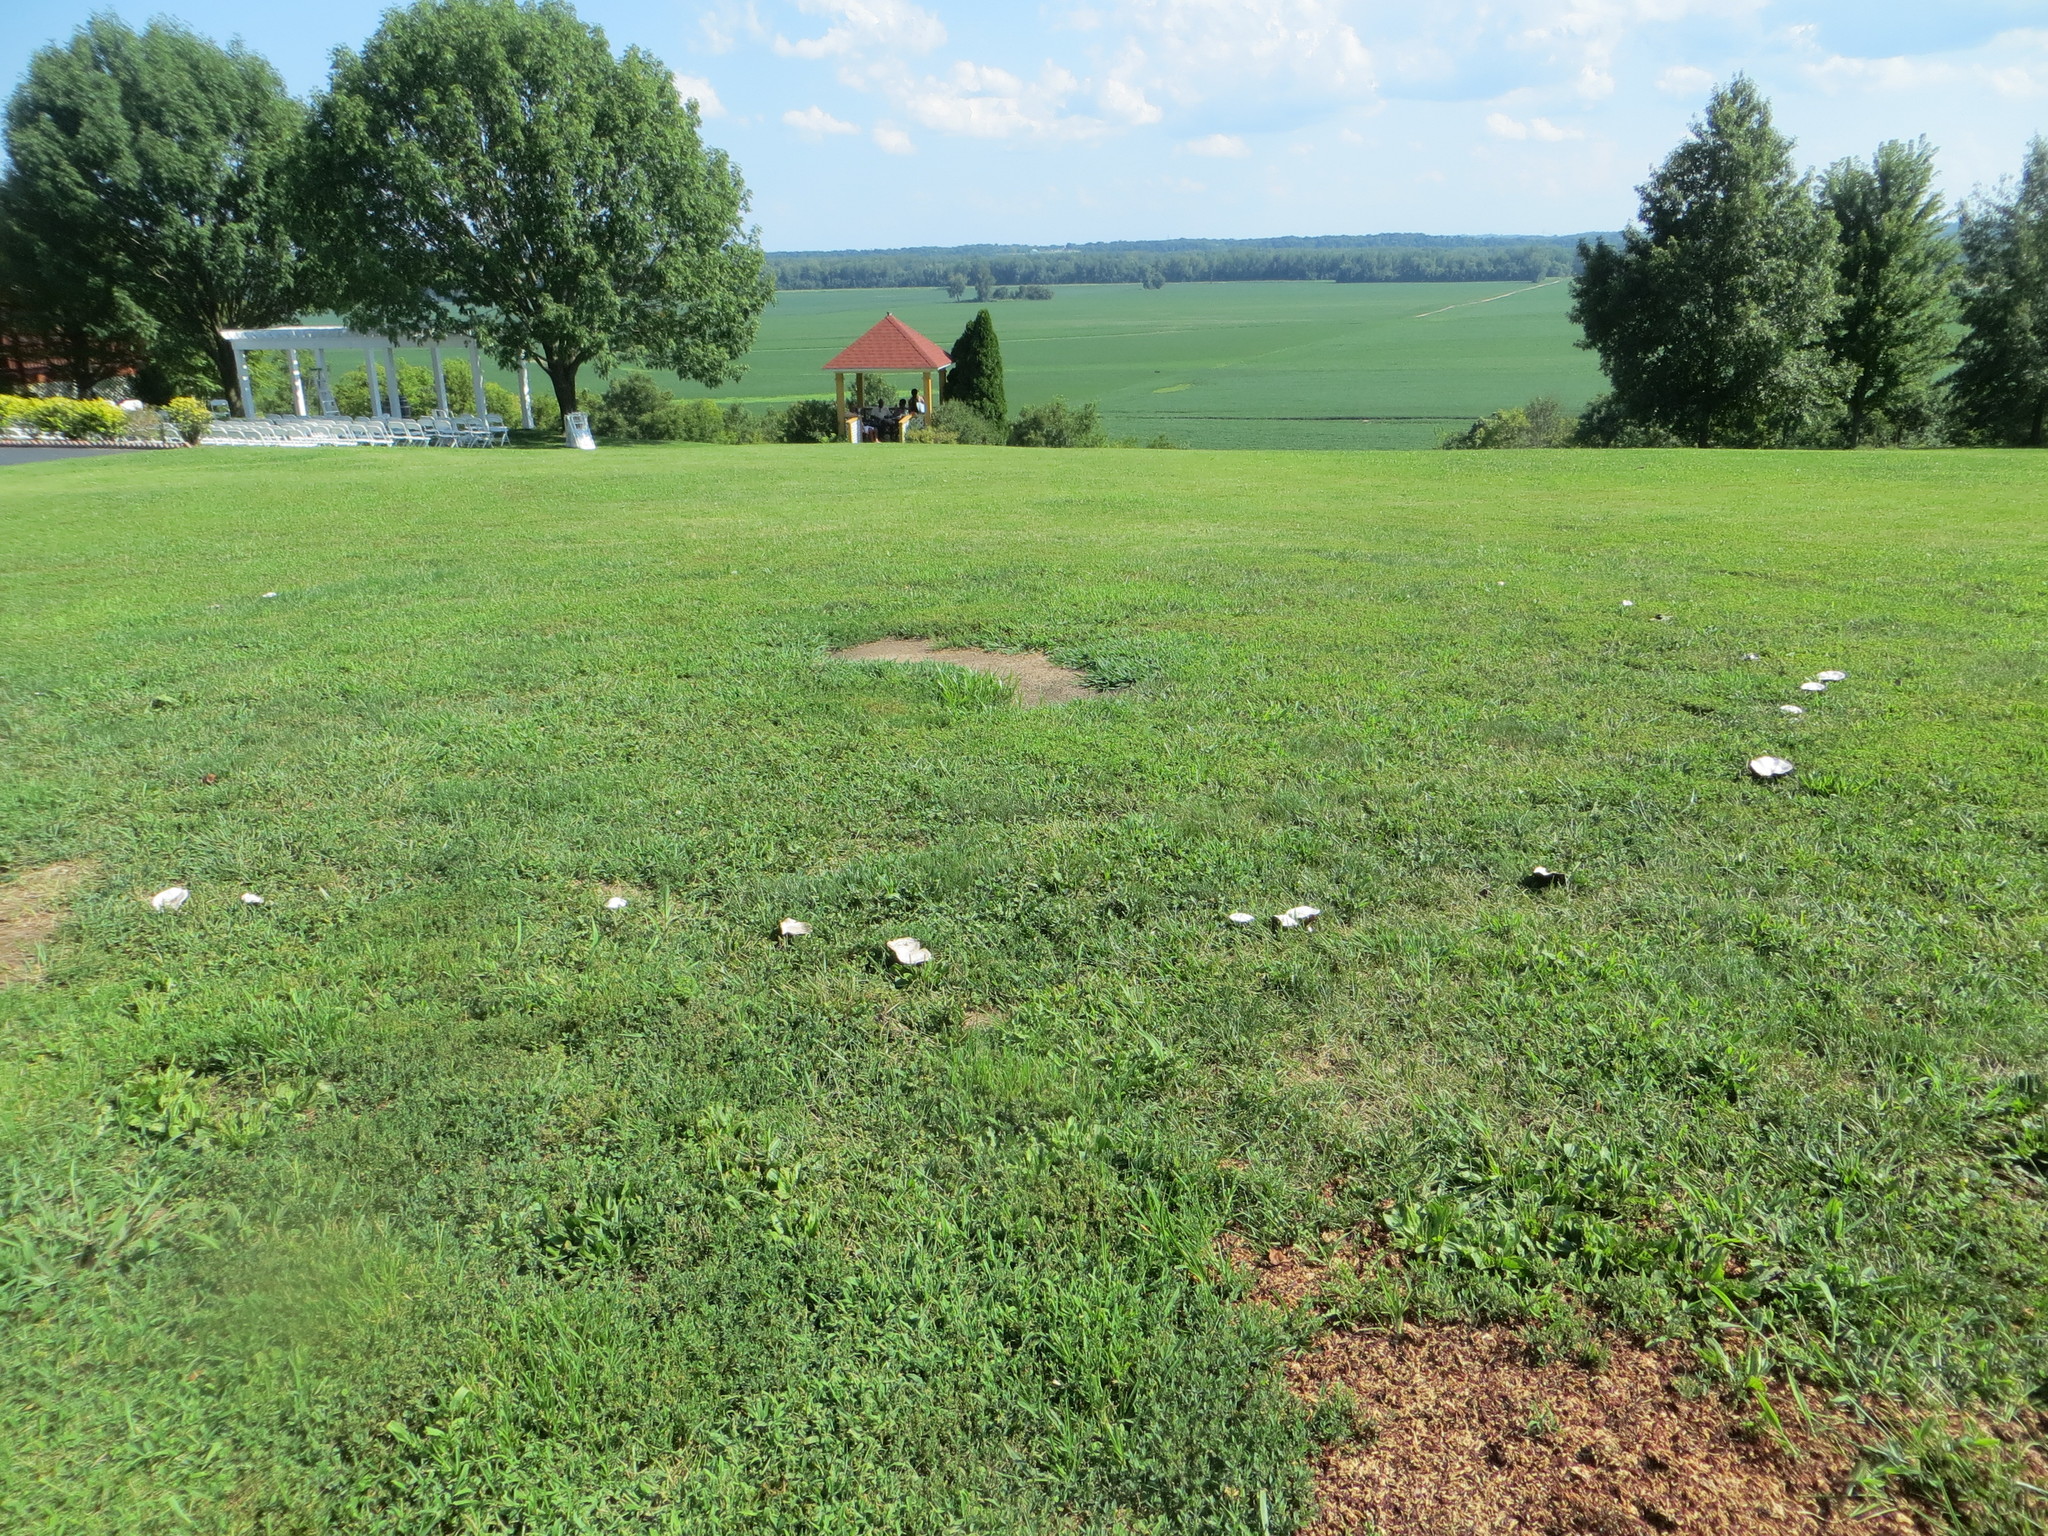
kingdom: Fungi
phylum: Basidiomycota
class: Agaricomycetes
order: Agaricales
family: Agaricaceae
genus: Agaricus
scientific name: Agaricus campestris
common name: Field mushroom
